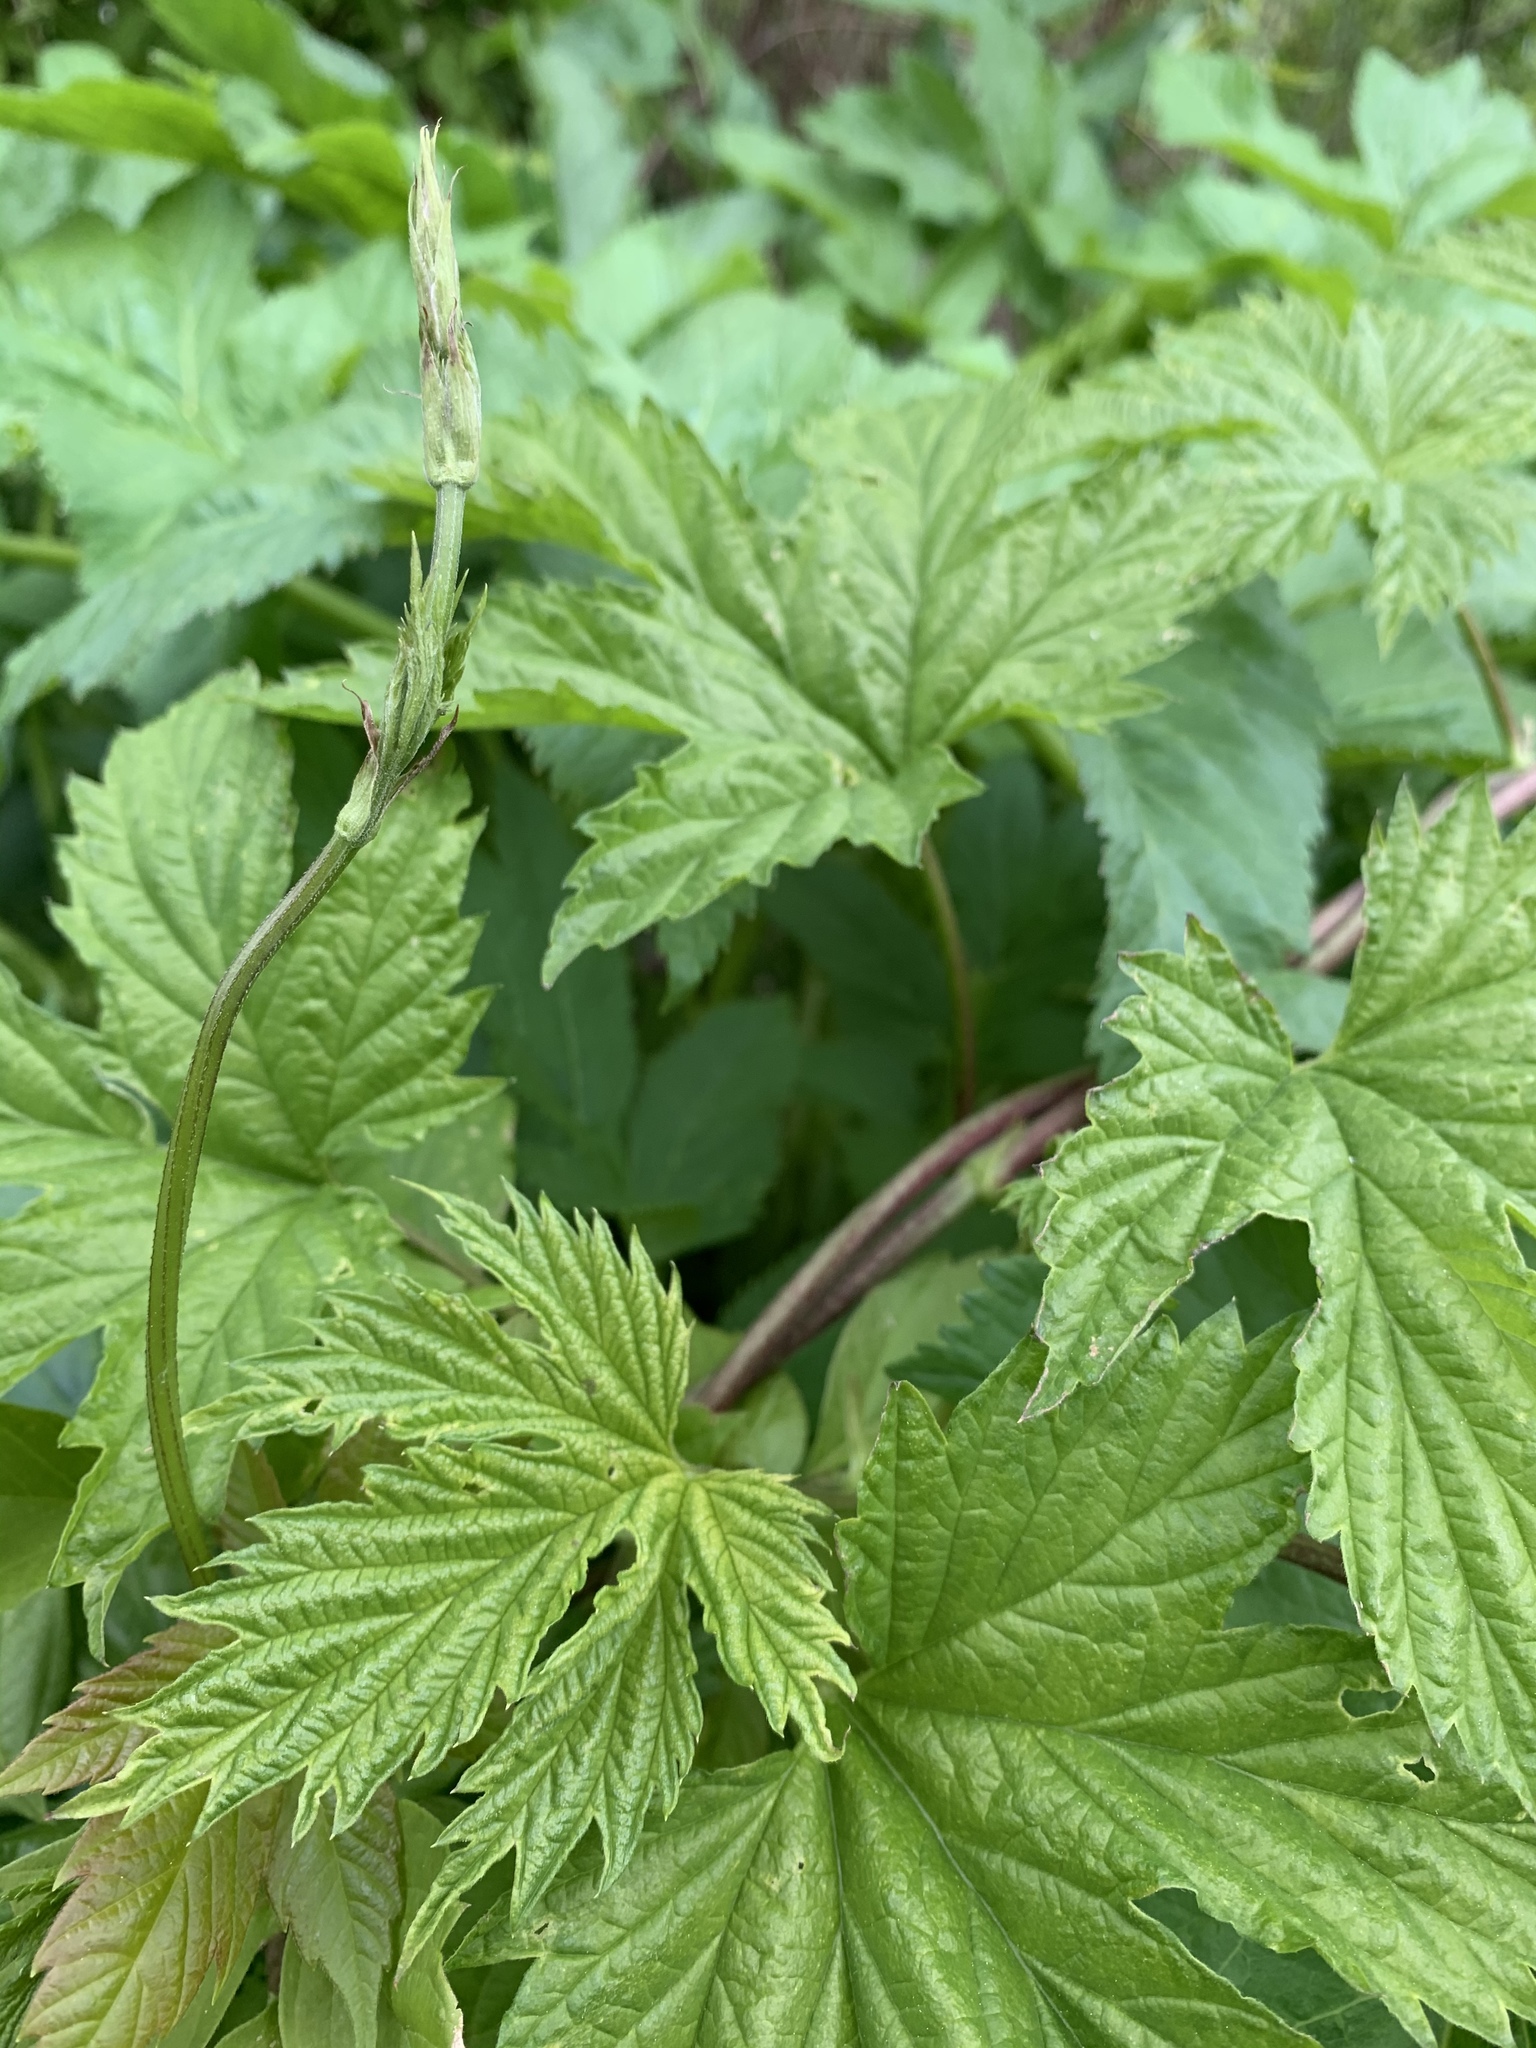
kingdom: Plantae
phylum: Tracheophyta
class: Magnoliopsida
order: Rosales
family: Cannabaceae
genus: Humulus
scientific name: Humulus lupulus
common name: Hop
